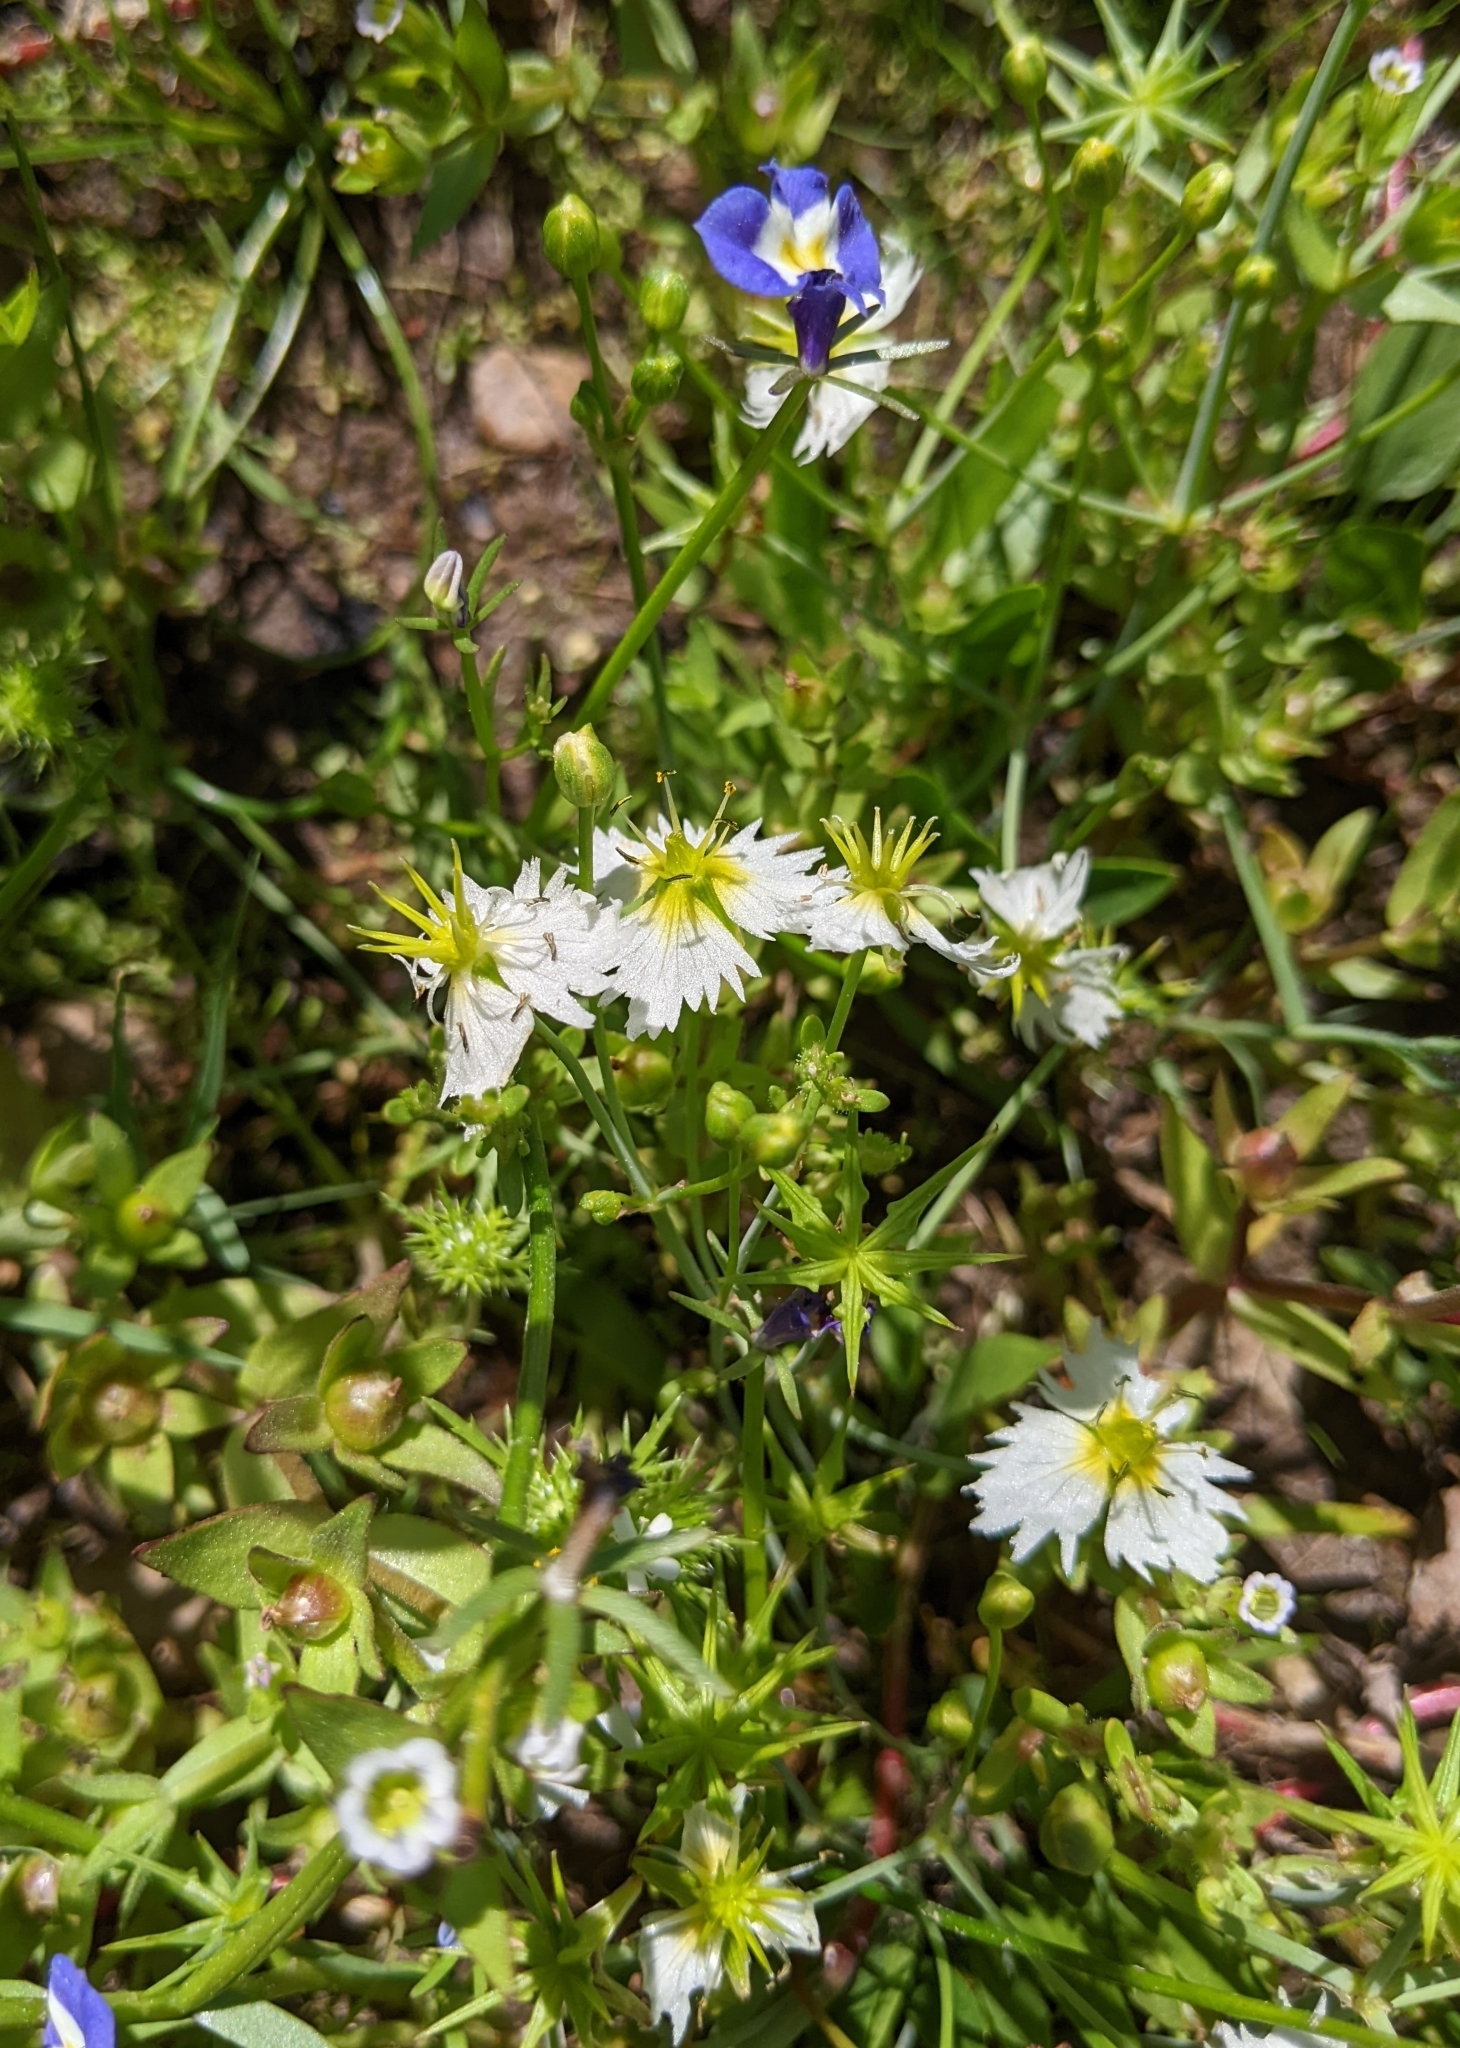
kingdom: Plantae
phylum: Tracheophyta
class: Liliopsida
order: Alismatales
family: Alismataceae
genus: Damasonium
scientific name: Damasonium californicum
